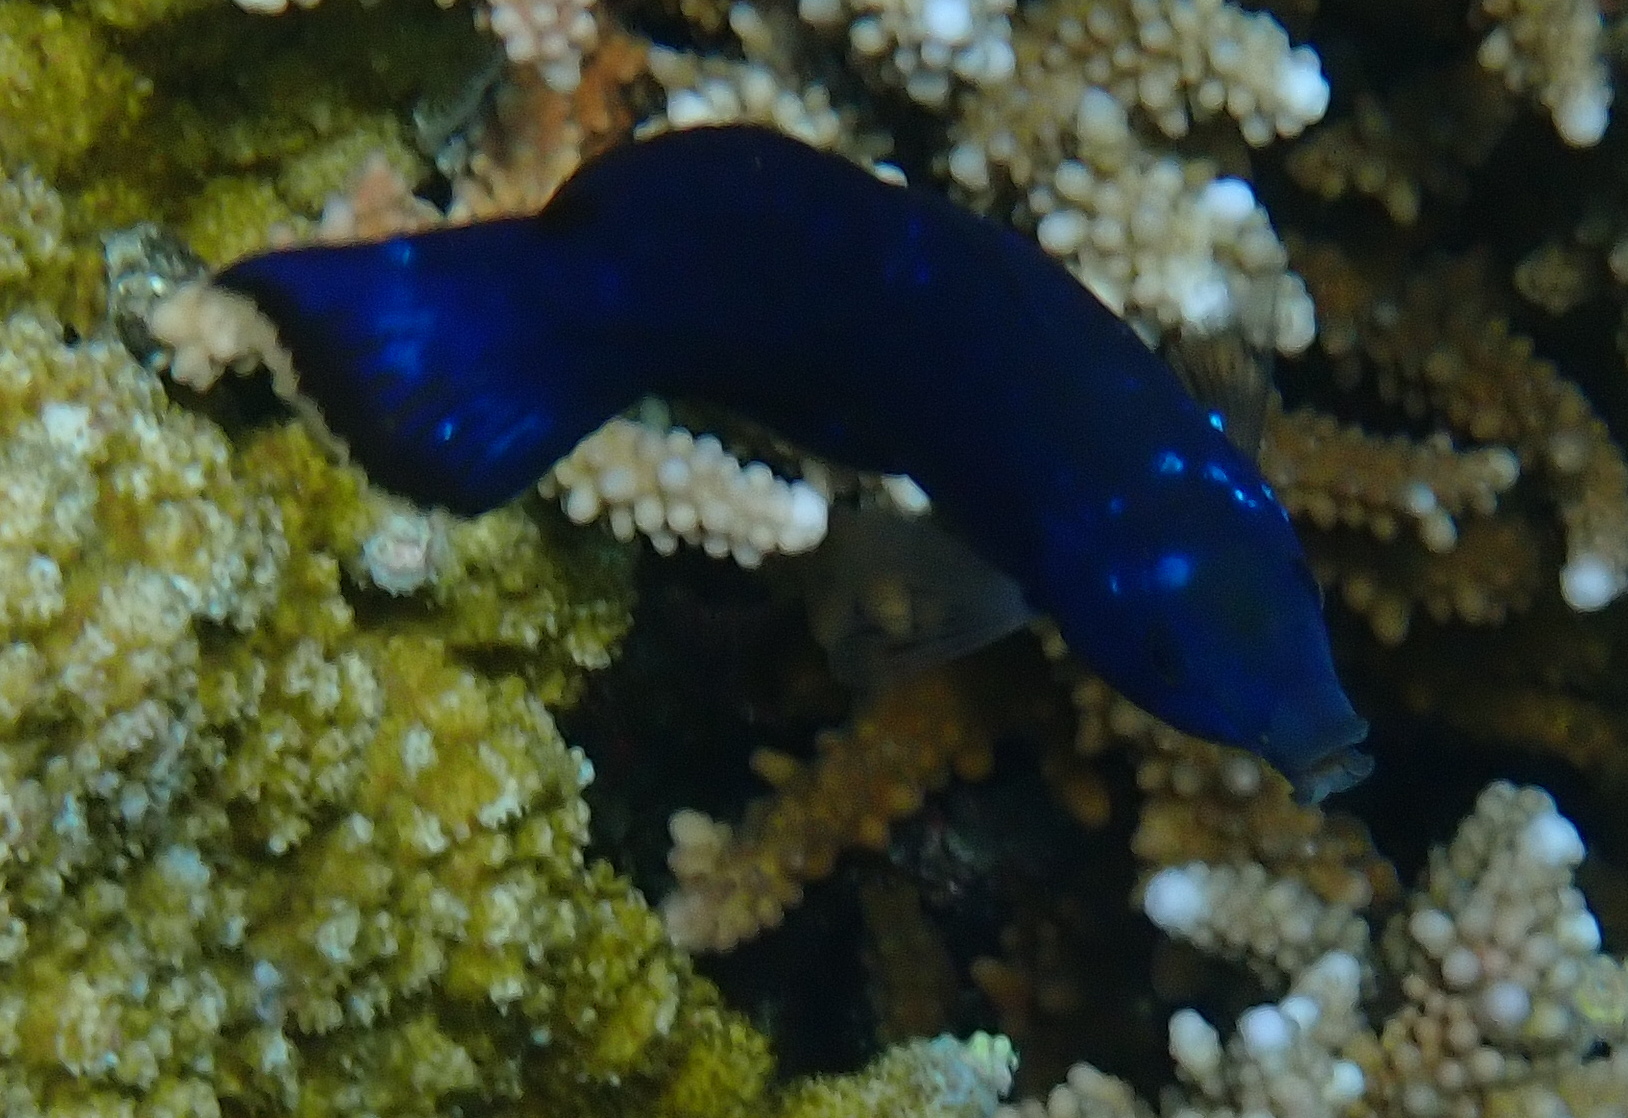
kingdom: Animalia
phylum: Chordata
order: Perciformes
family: Labridae
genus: Larabicus
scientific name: Larabicus quadrilineatus
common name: Fourline wrasse
